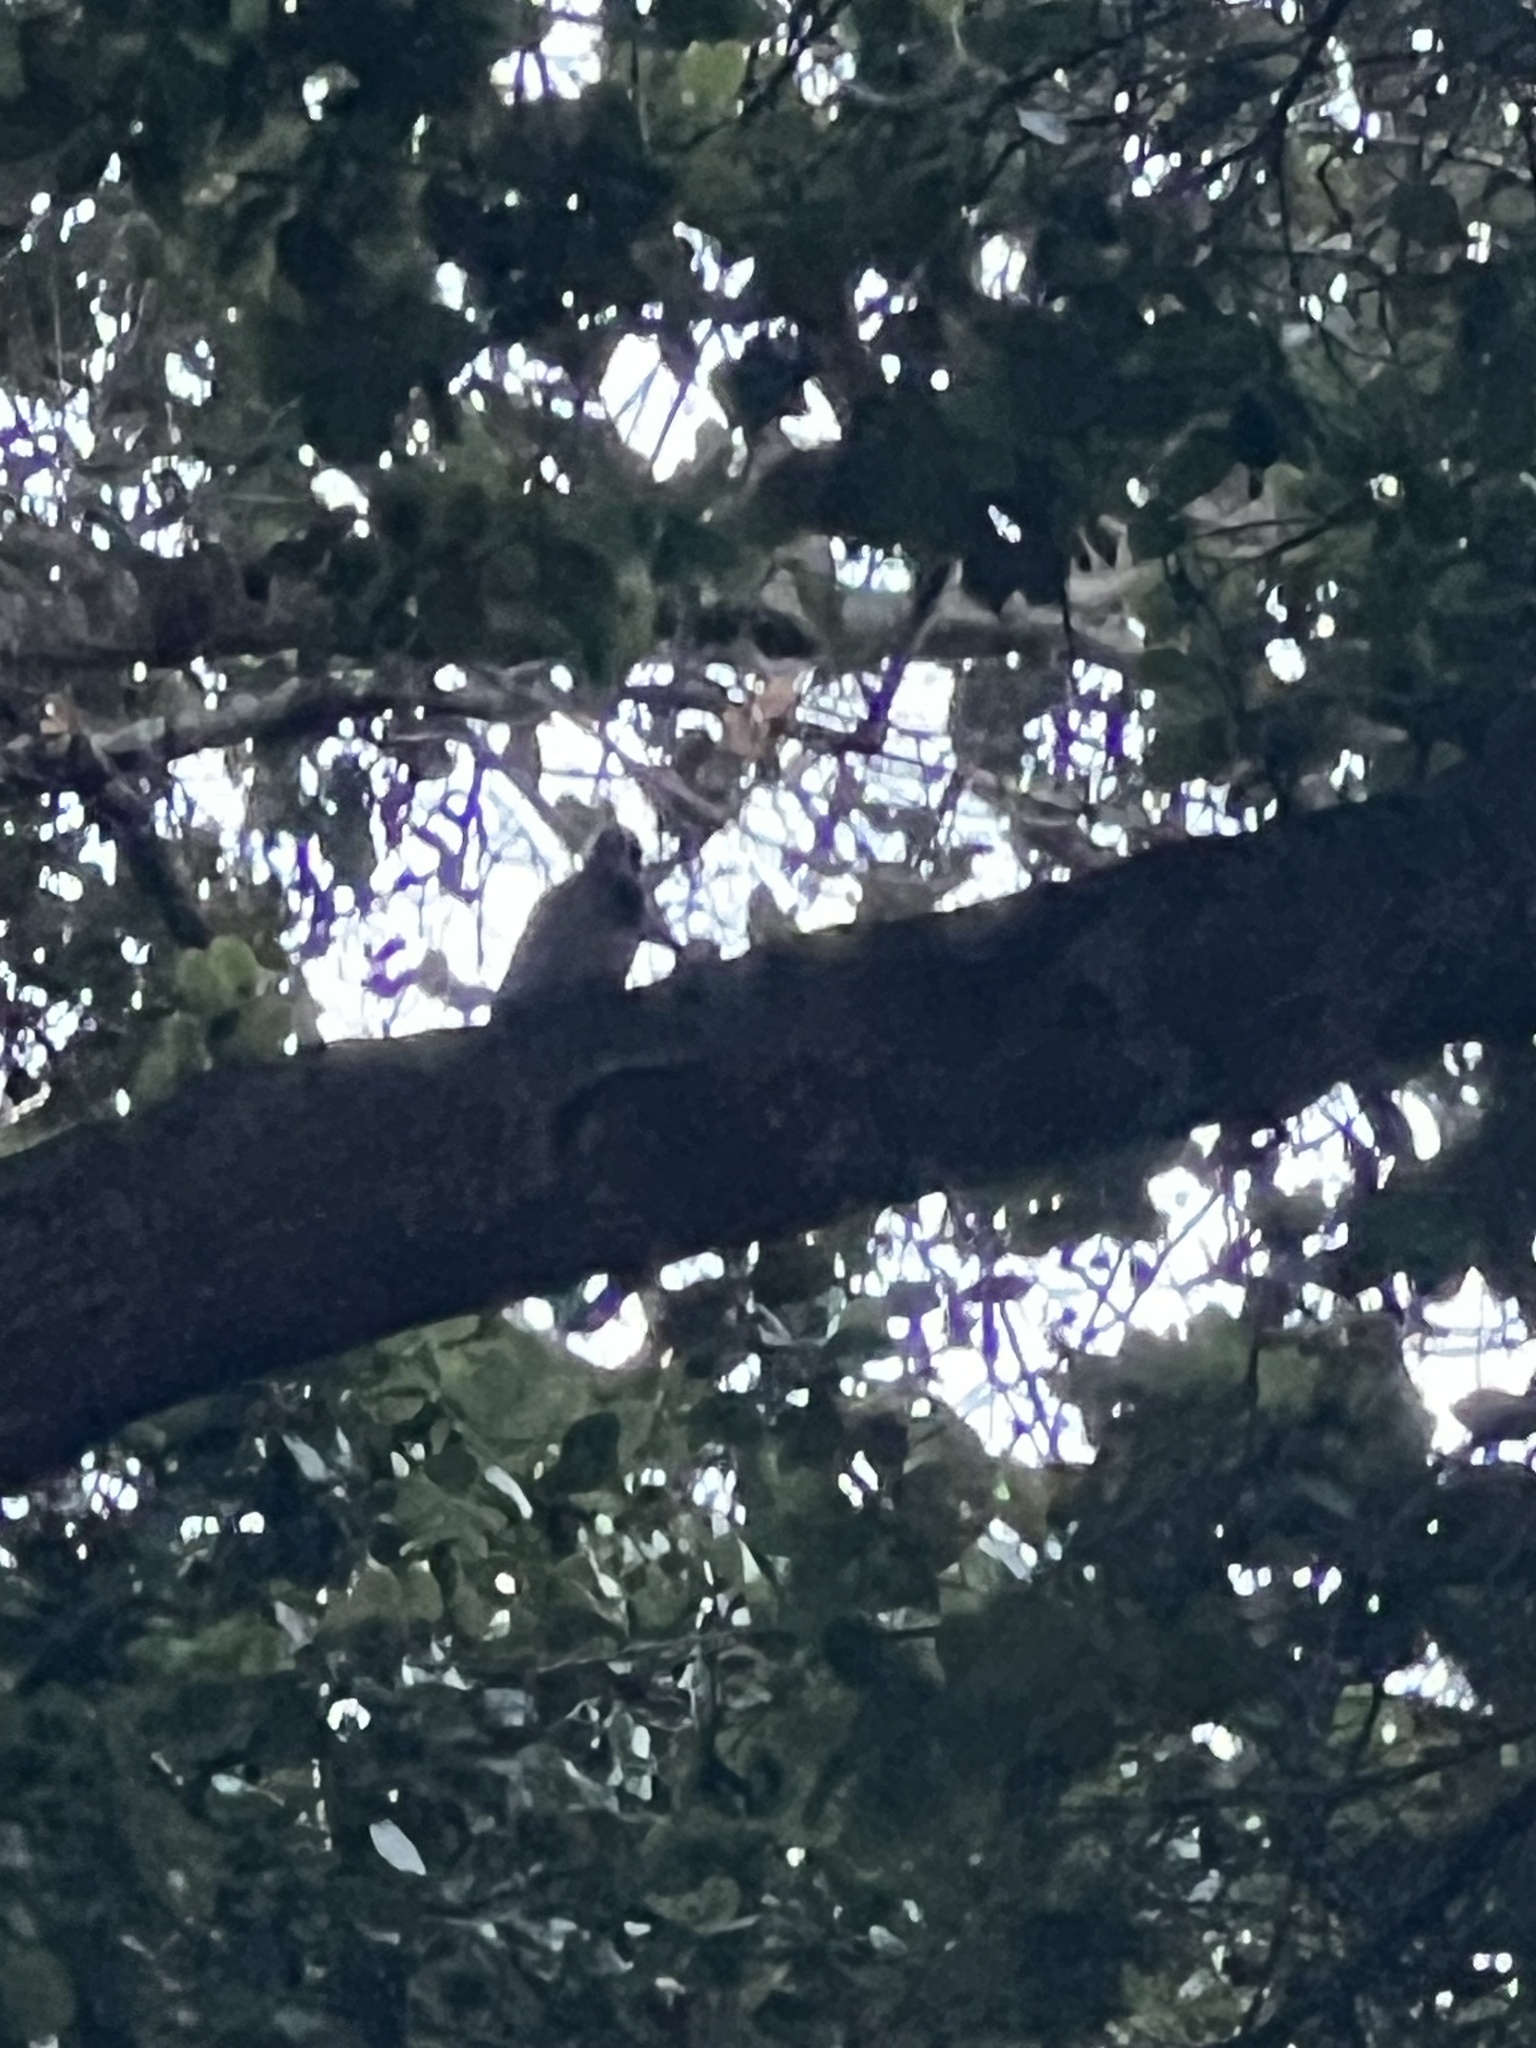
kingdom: Animalia
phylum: Chordata
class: Aves
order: Piciformes
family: Picidae
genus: Colaptes
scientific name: Colaptes auratus
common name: Northern flicker
